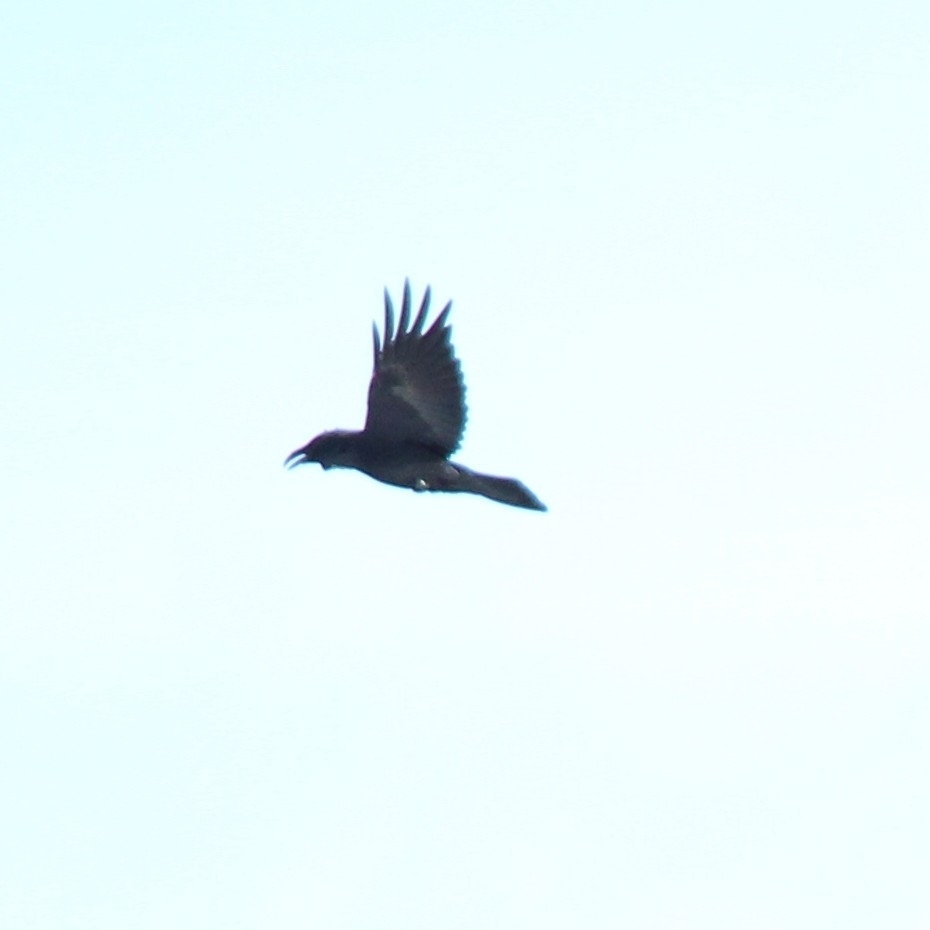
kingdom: Animalia
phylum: Chordata
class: Aves
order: Passeriformes
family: Corvidae
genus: Corvus
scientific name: Corvus corax
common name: Common raven
